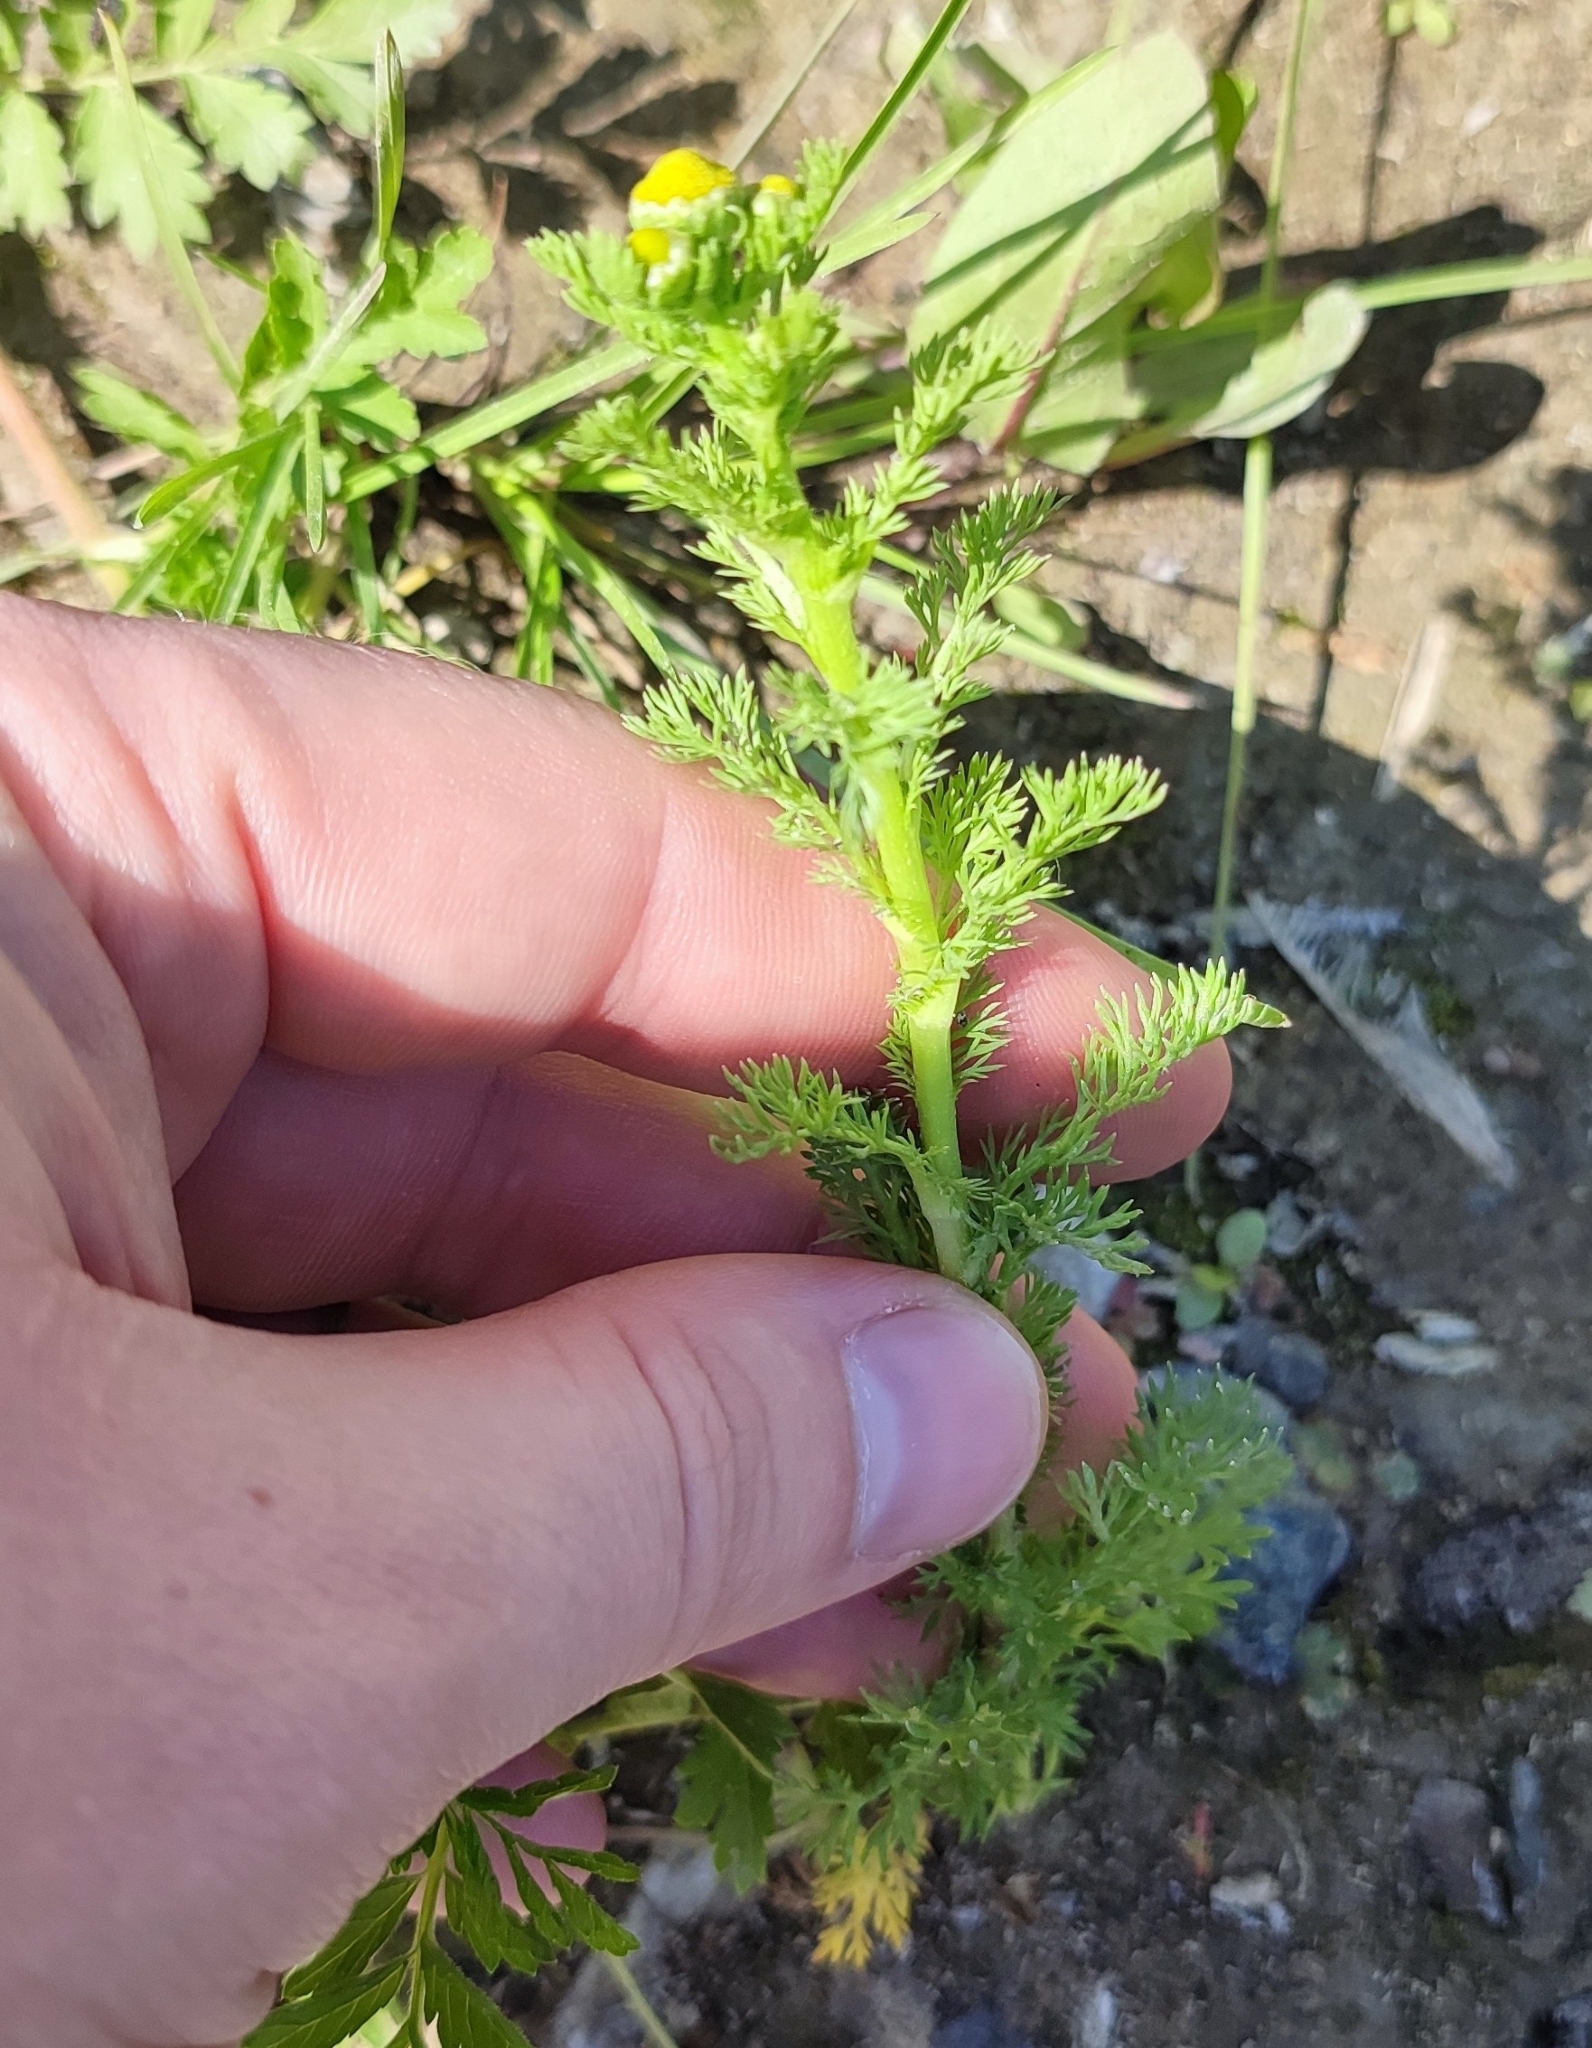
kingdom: Plantae
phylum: Tracheophyta
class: Magnoliopsida
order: Asterales
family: Asteraceae
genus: Matricaria
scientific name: Matricaria discoidea
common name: Disc mayweed
